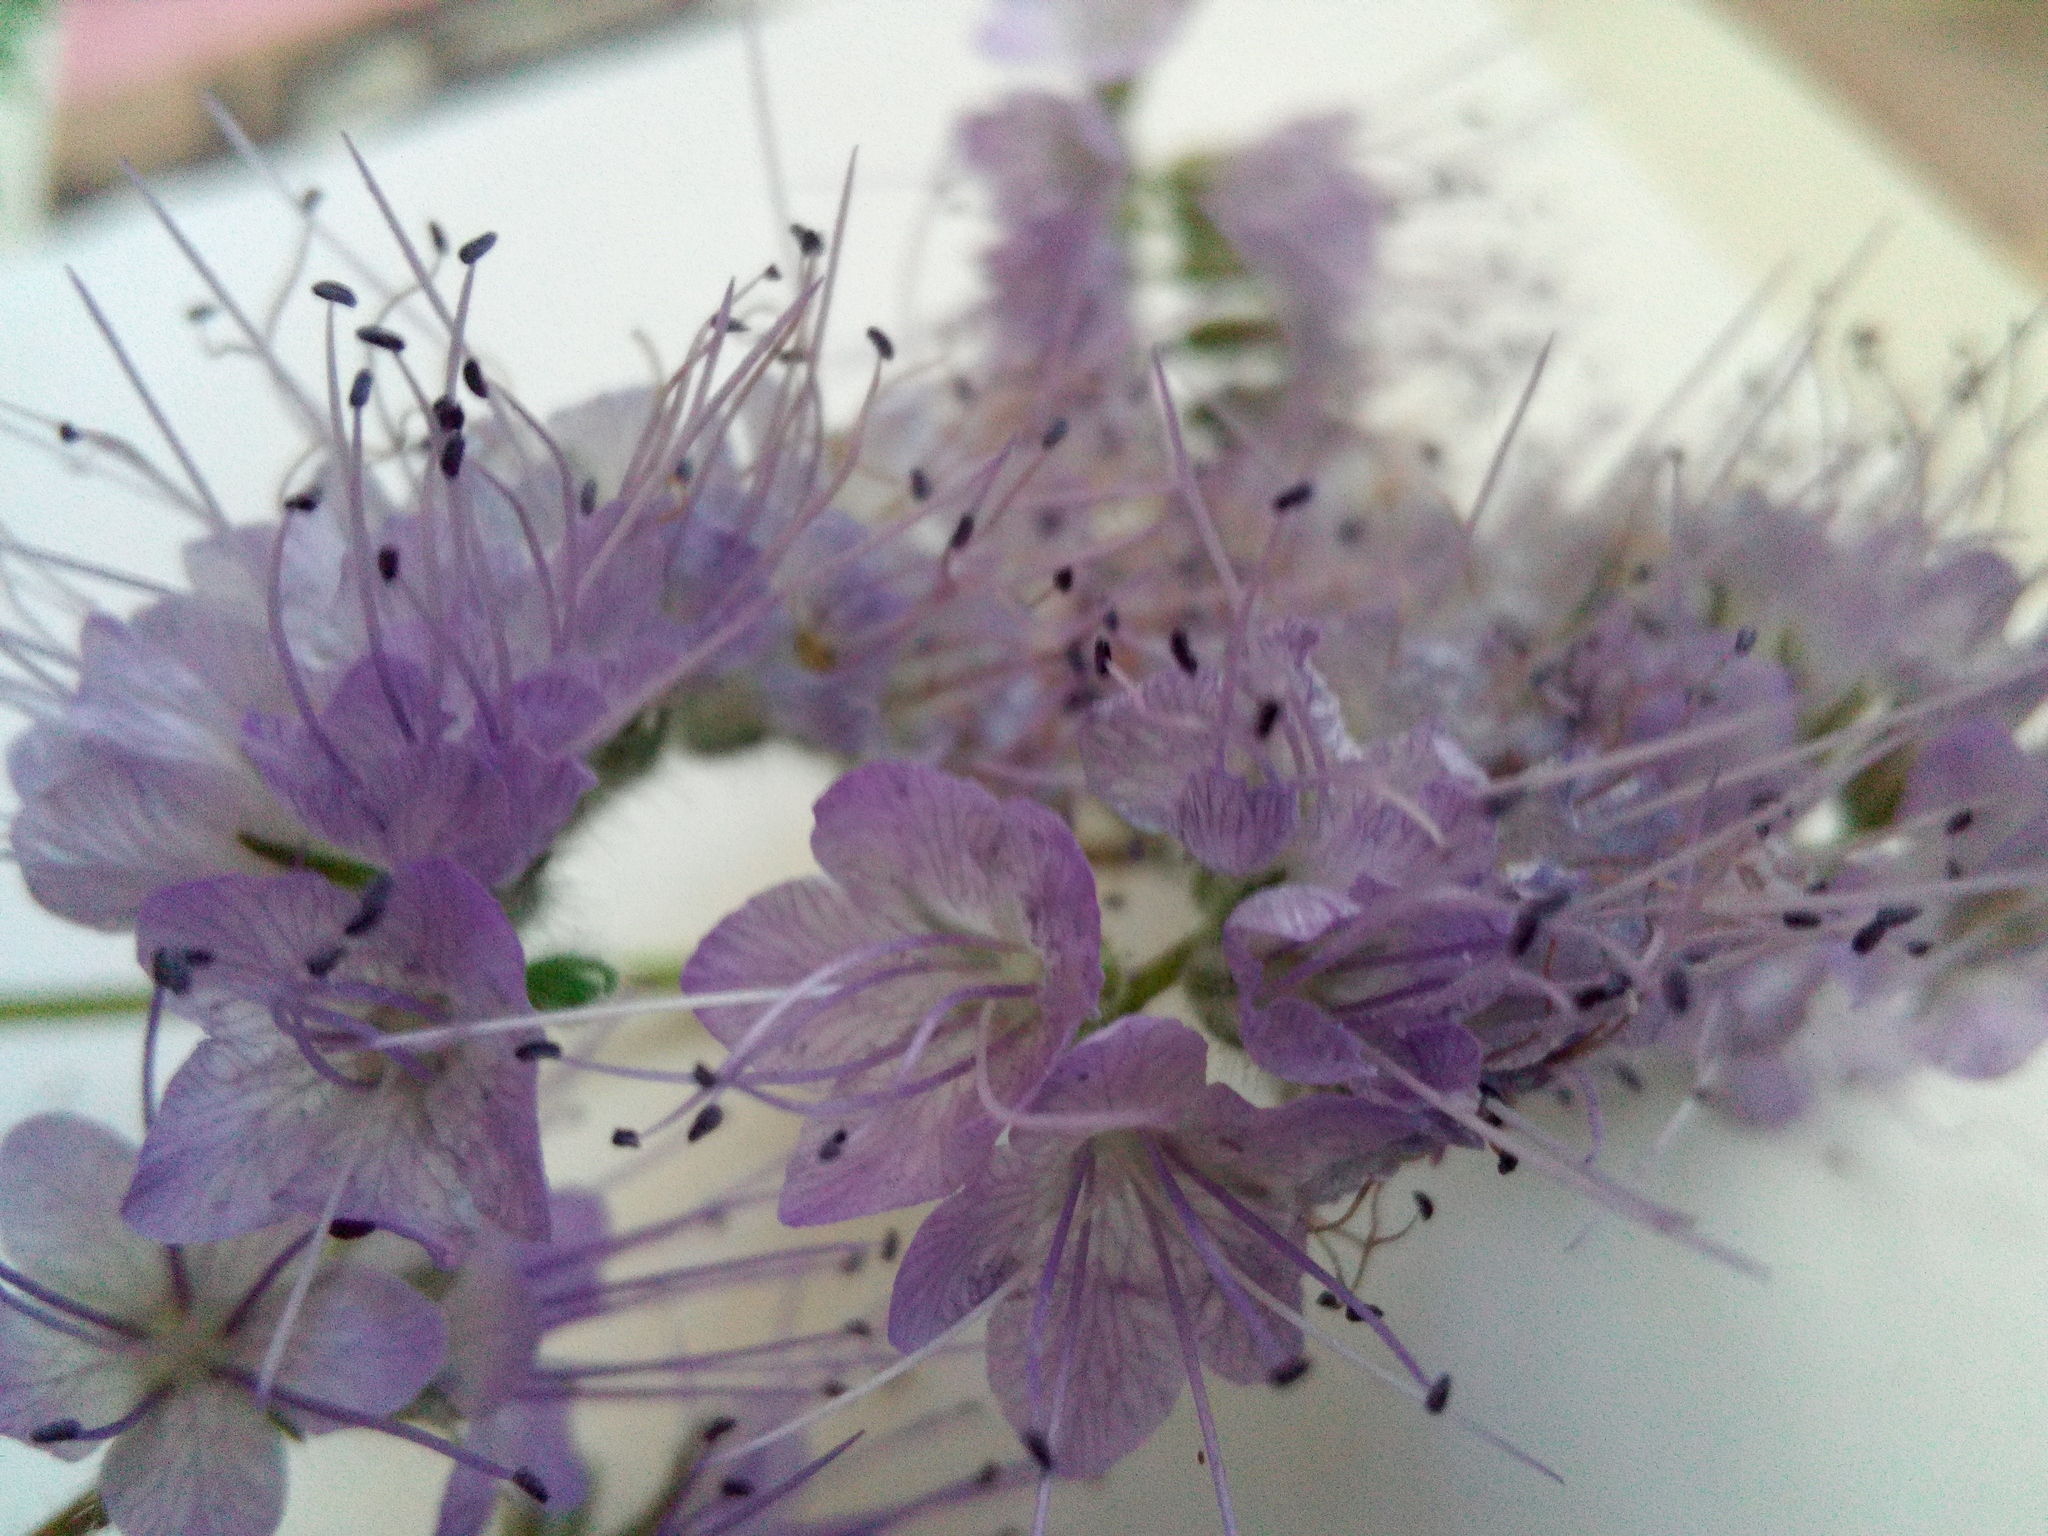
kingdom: Plantae
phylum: Tracheophyta
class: Magnoliopsida
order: Boraginales
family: Hydrophyllaceae
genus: Phacelia
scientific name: Phacelia tanacetifolia
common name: Phacelia
